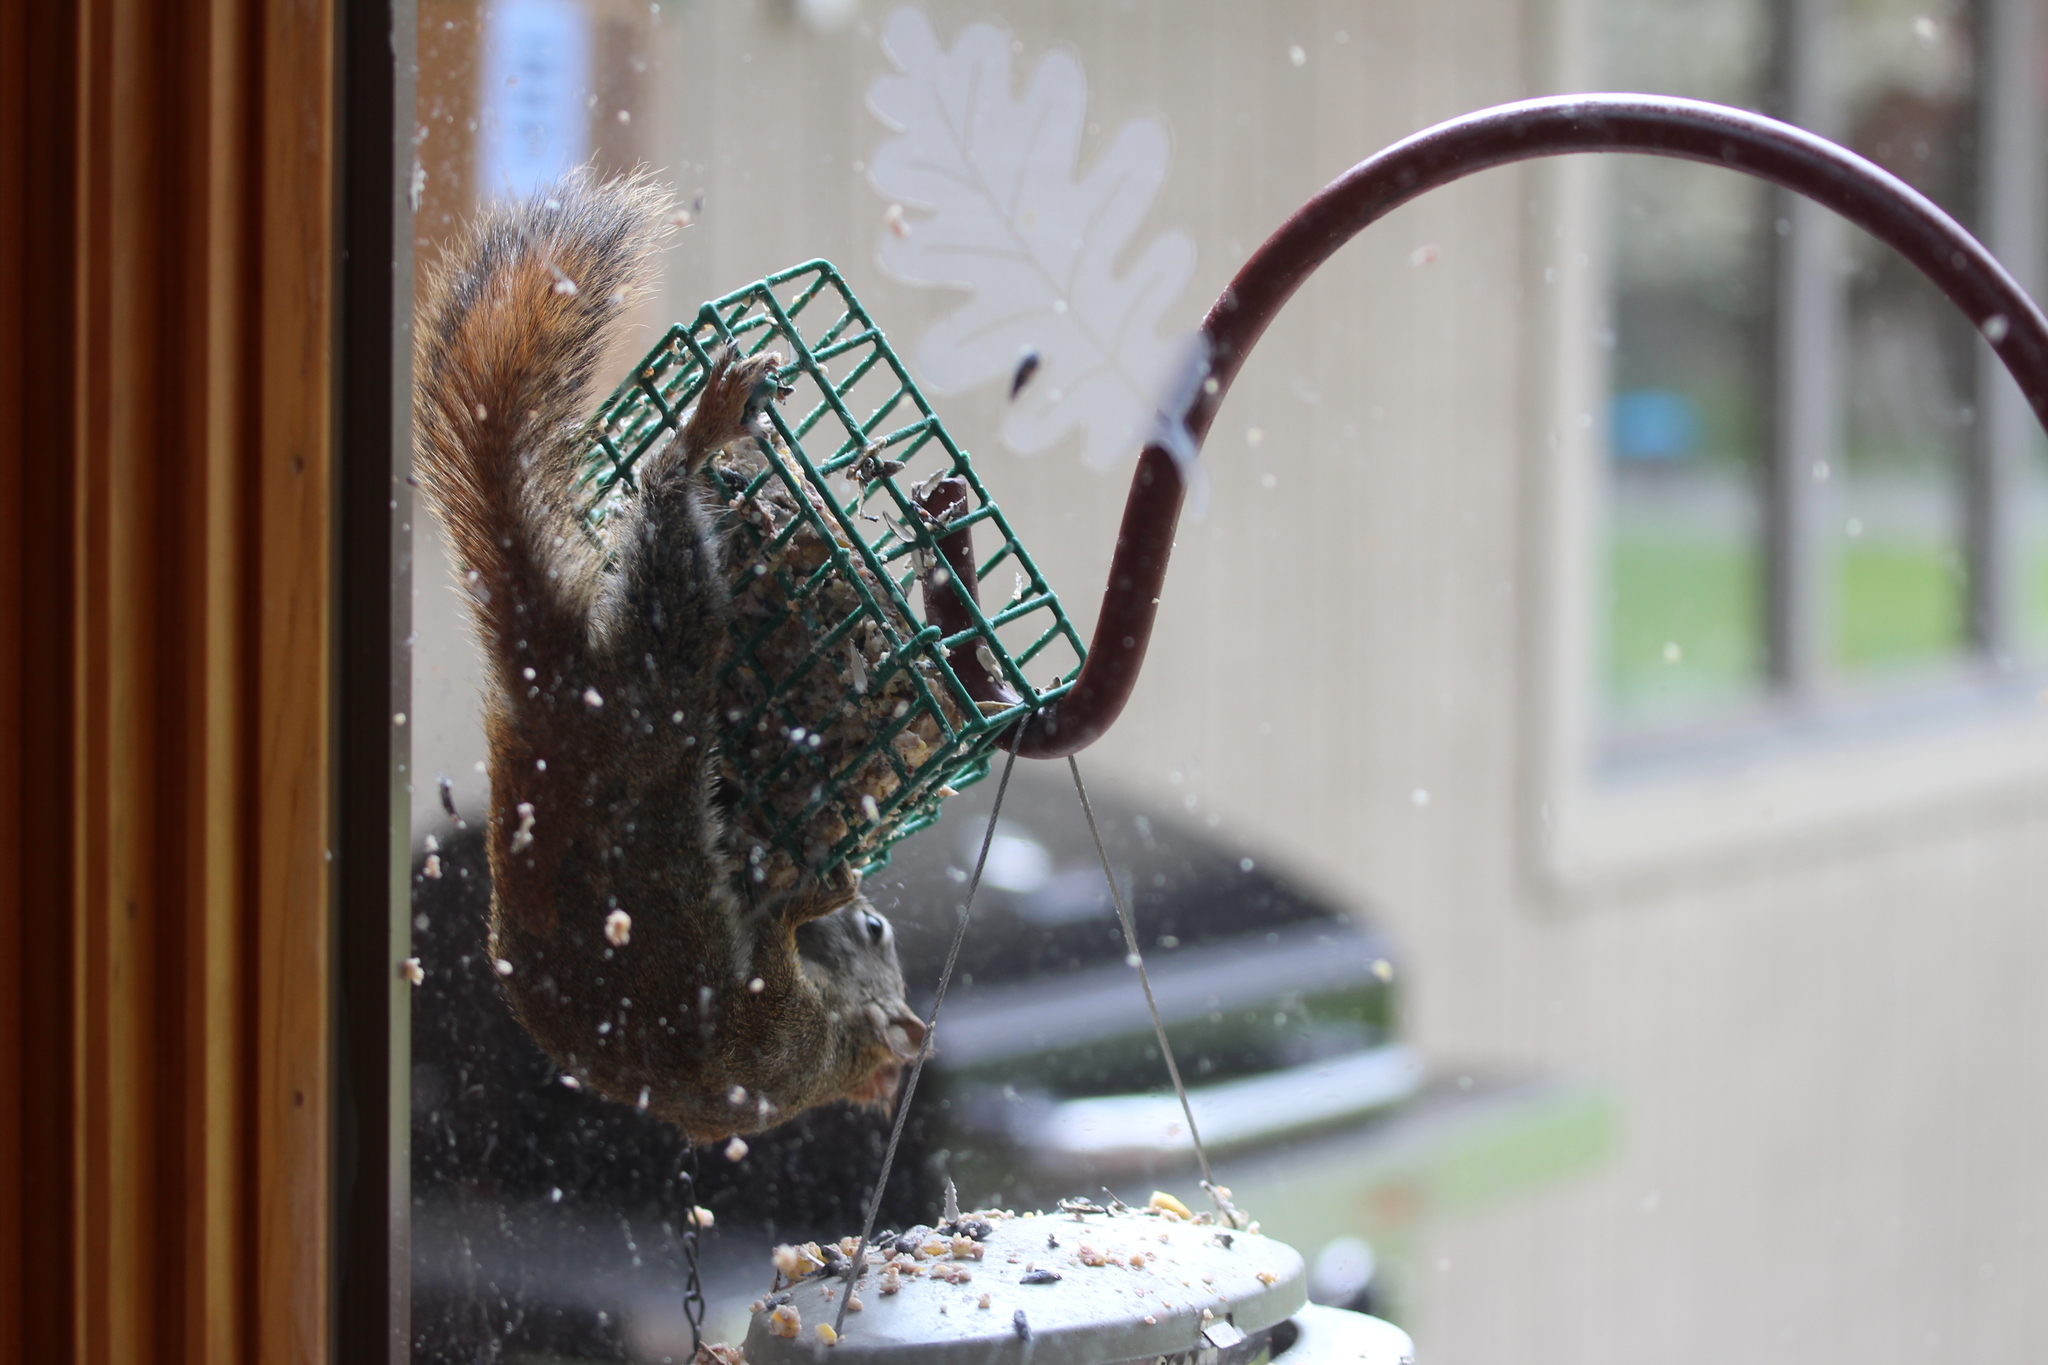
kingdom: Animalia
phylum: Chordata
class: Mammalia
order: Rodentia
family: Sciuridae
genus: Tamiasciurus
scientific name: Tamiasciurus hudsonicus
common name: Red squirrel
